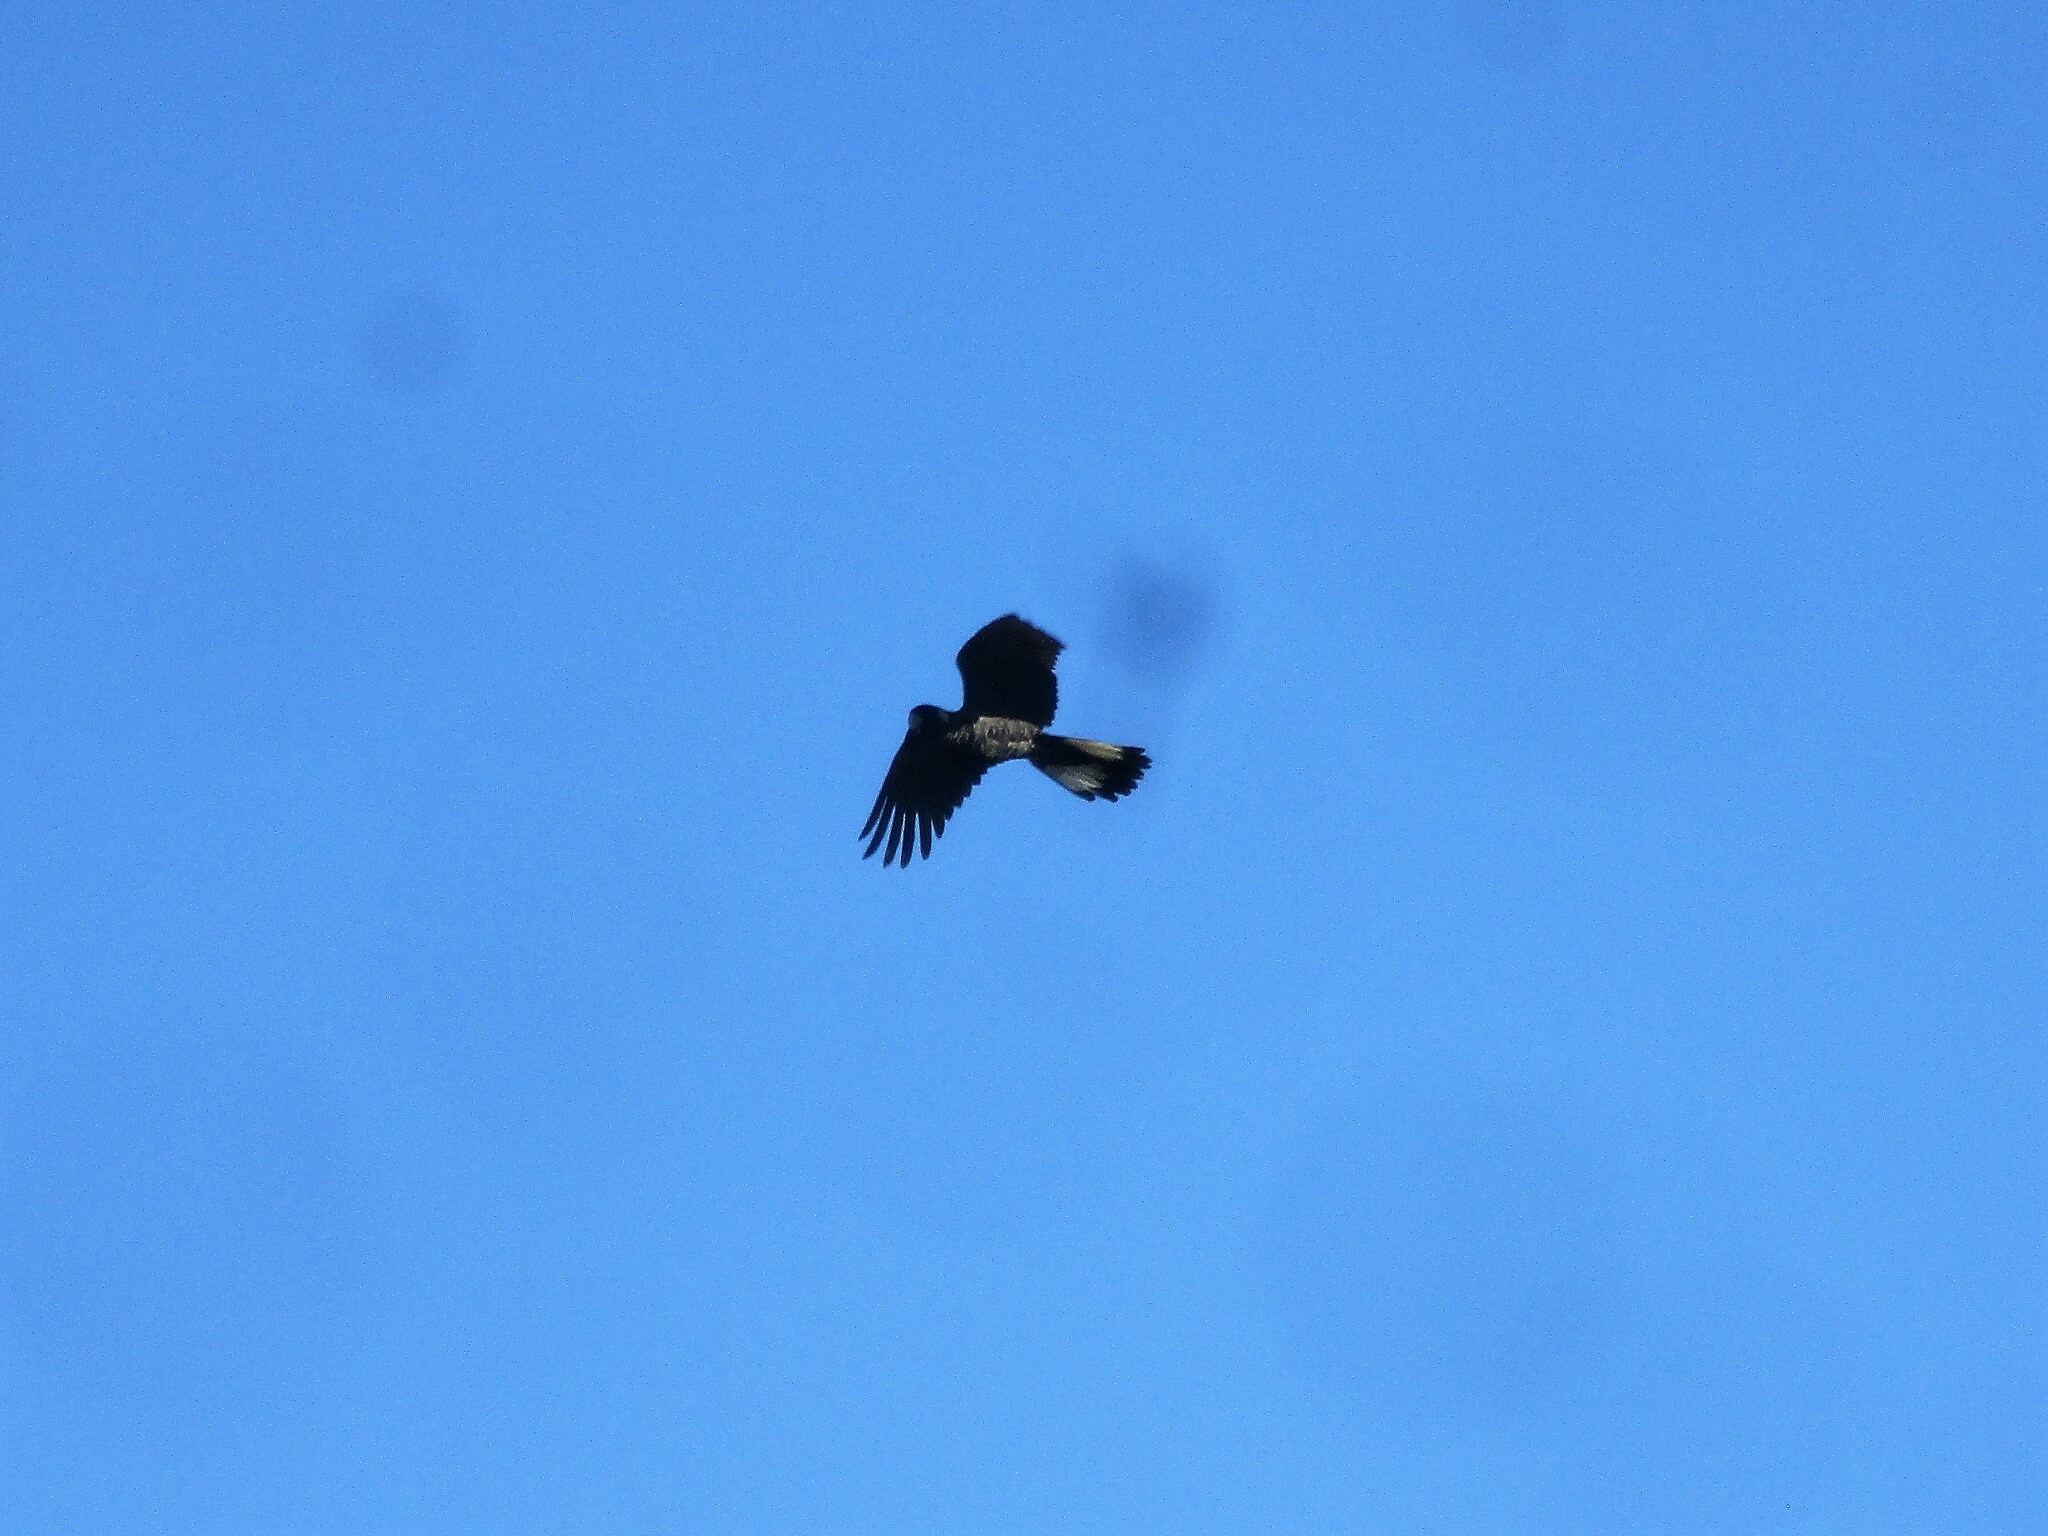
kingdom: Animalia
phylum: Chordata
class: Aves
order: Psittaciformes
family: Cacatuidae
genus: Zanda
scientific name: Zanda latirostris
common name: Short-billed black-cockatoo
